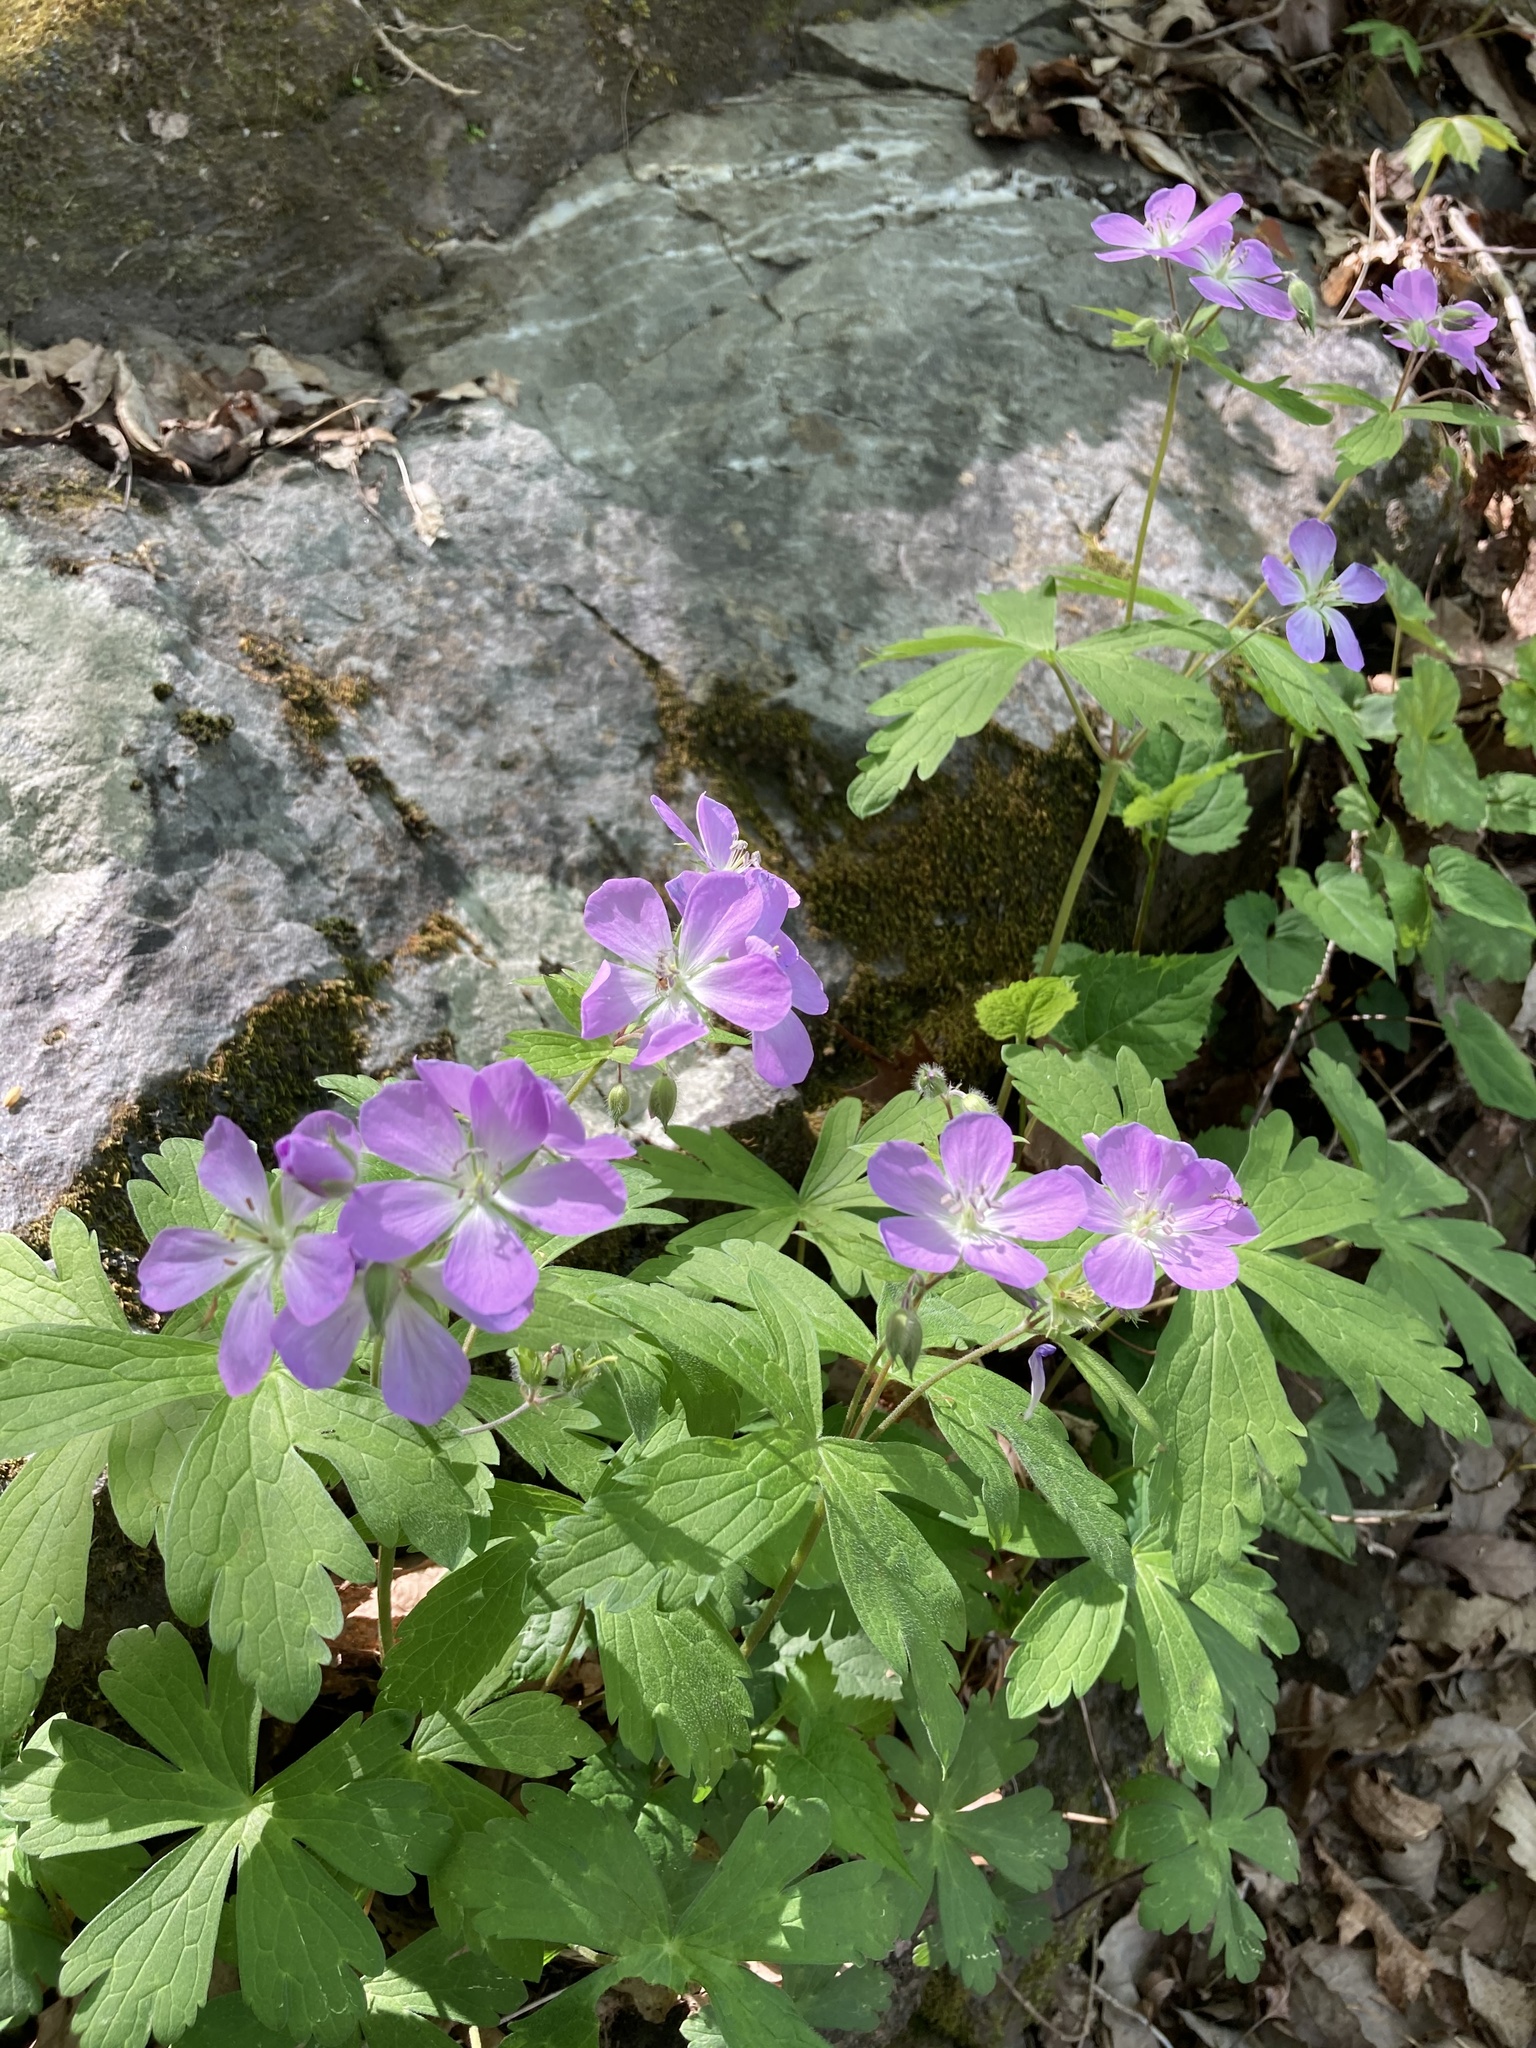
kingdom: Plantae
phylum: Tracheophyta
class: Magnoliopsida
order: Geraniales
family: Geraniaceae
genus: Geranium
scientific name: Geranium maculatum
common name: Spotted geranium
